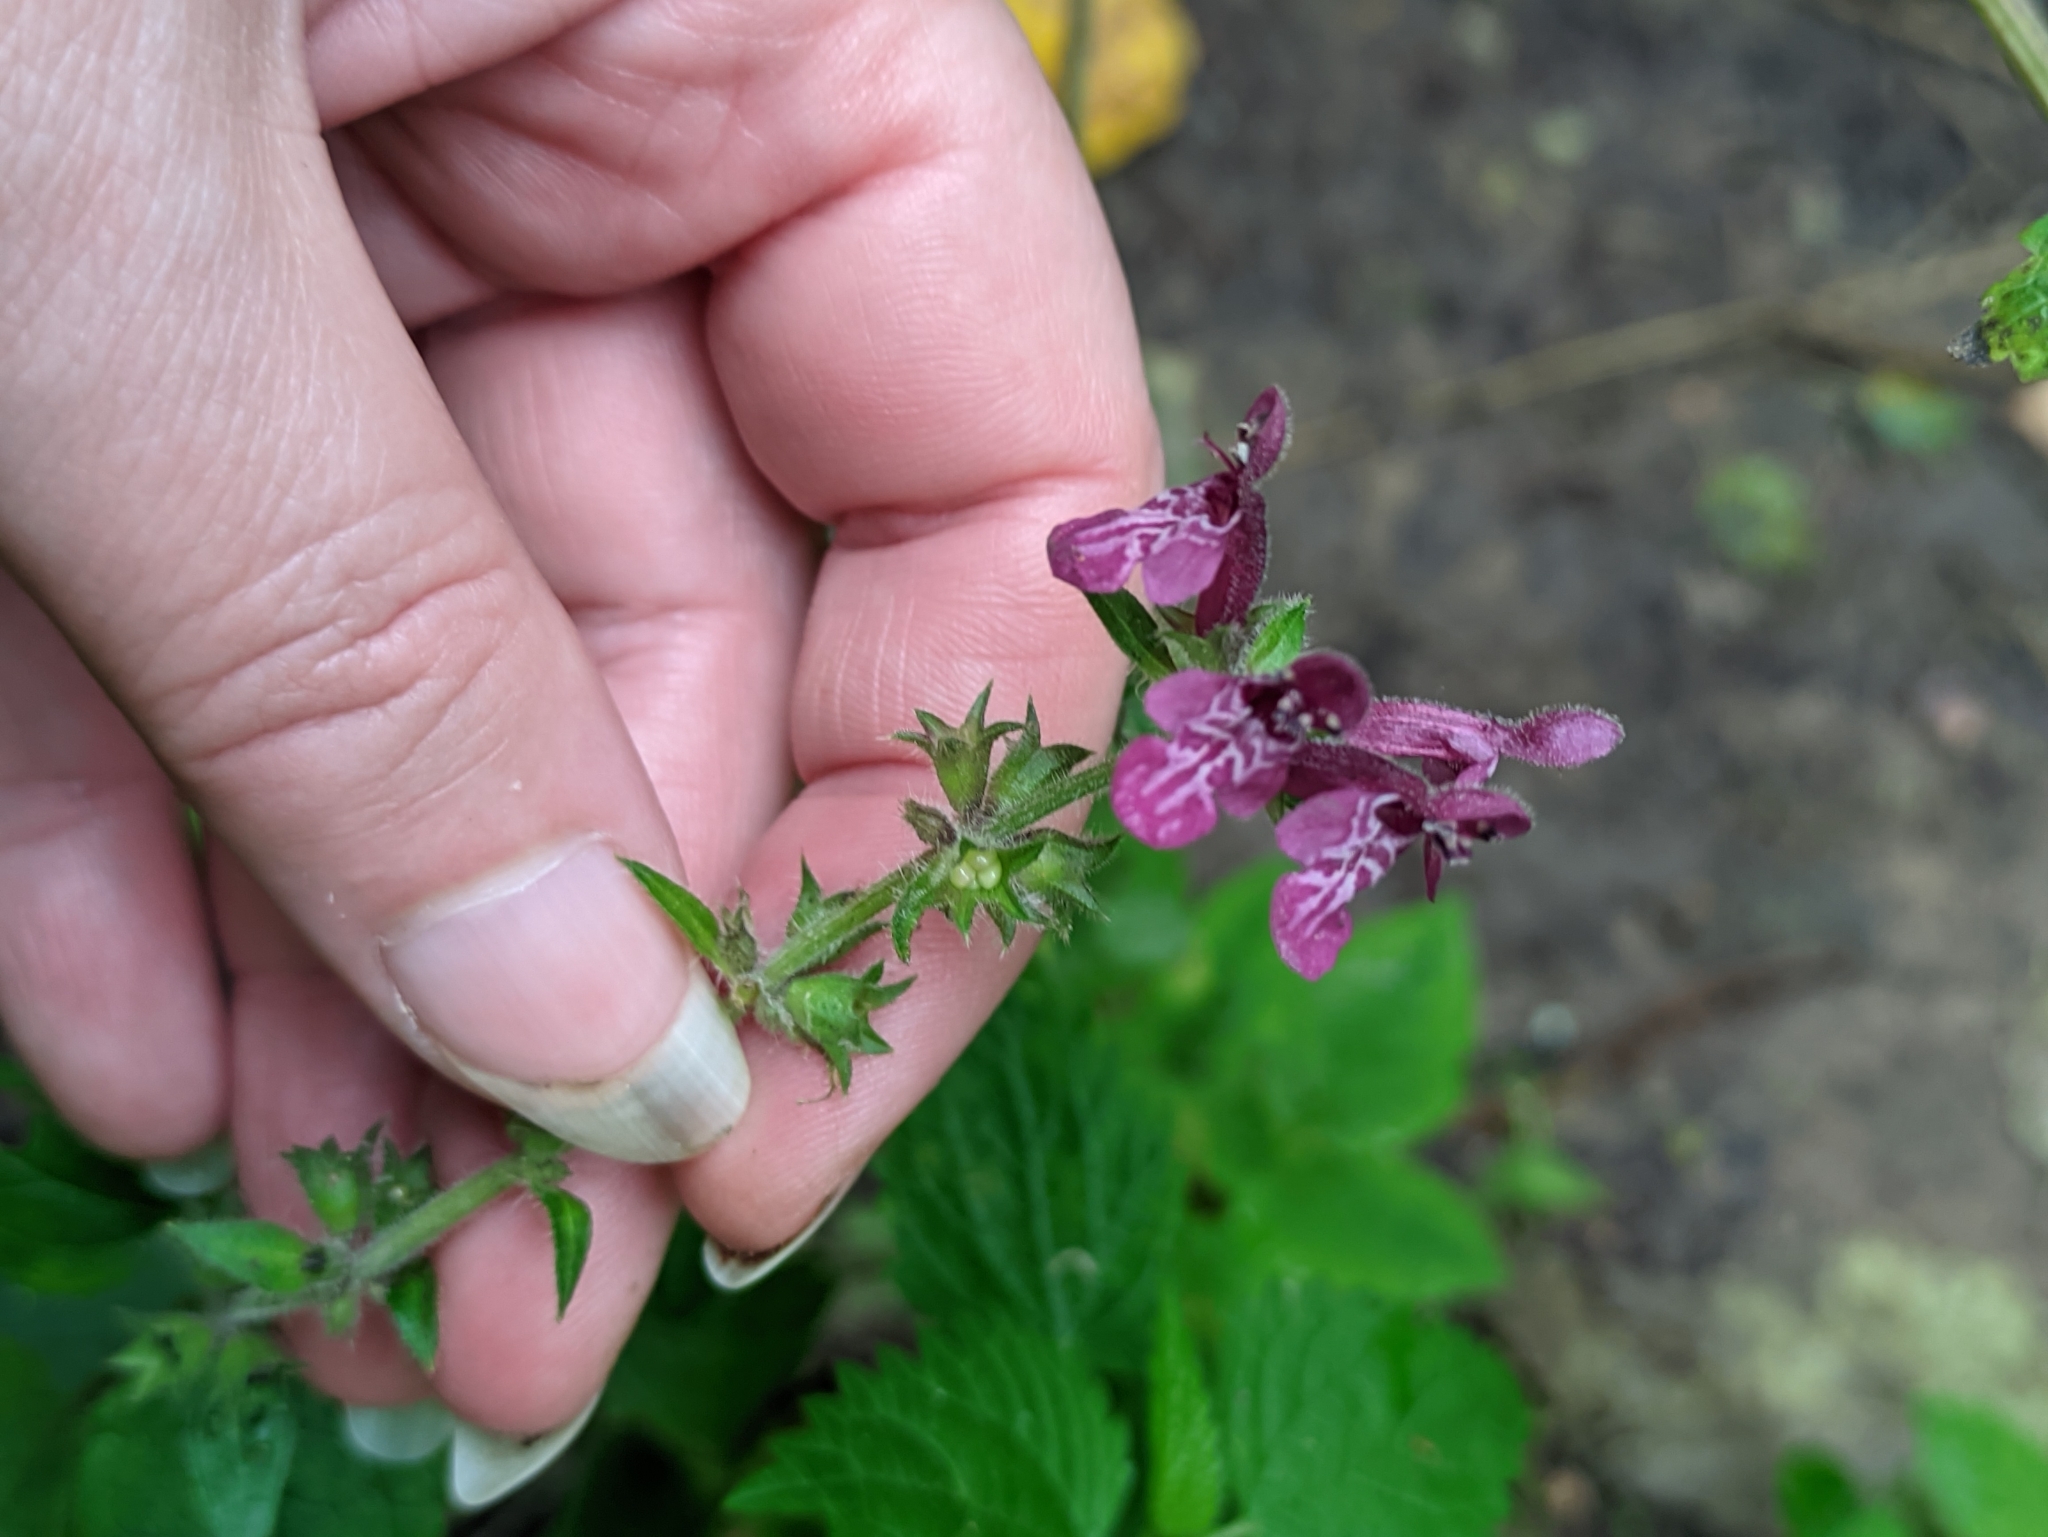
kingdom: Plantae
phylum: Tracheophyta
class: Magnoliopsida
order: Lamiales
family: Lamiaceae
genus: Stachys
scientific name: Stachys sylvatica
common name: Hedge woundwort
